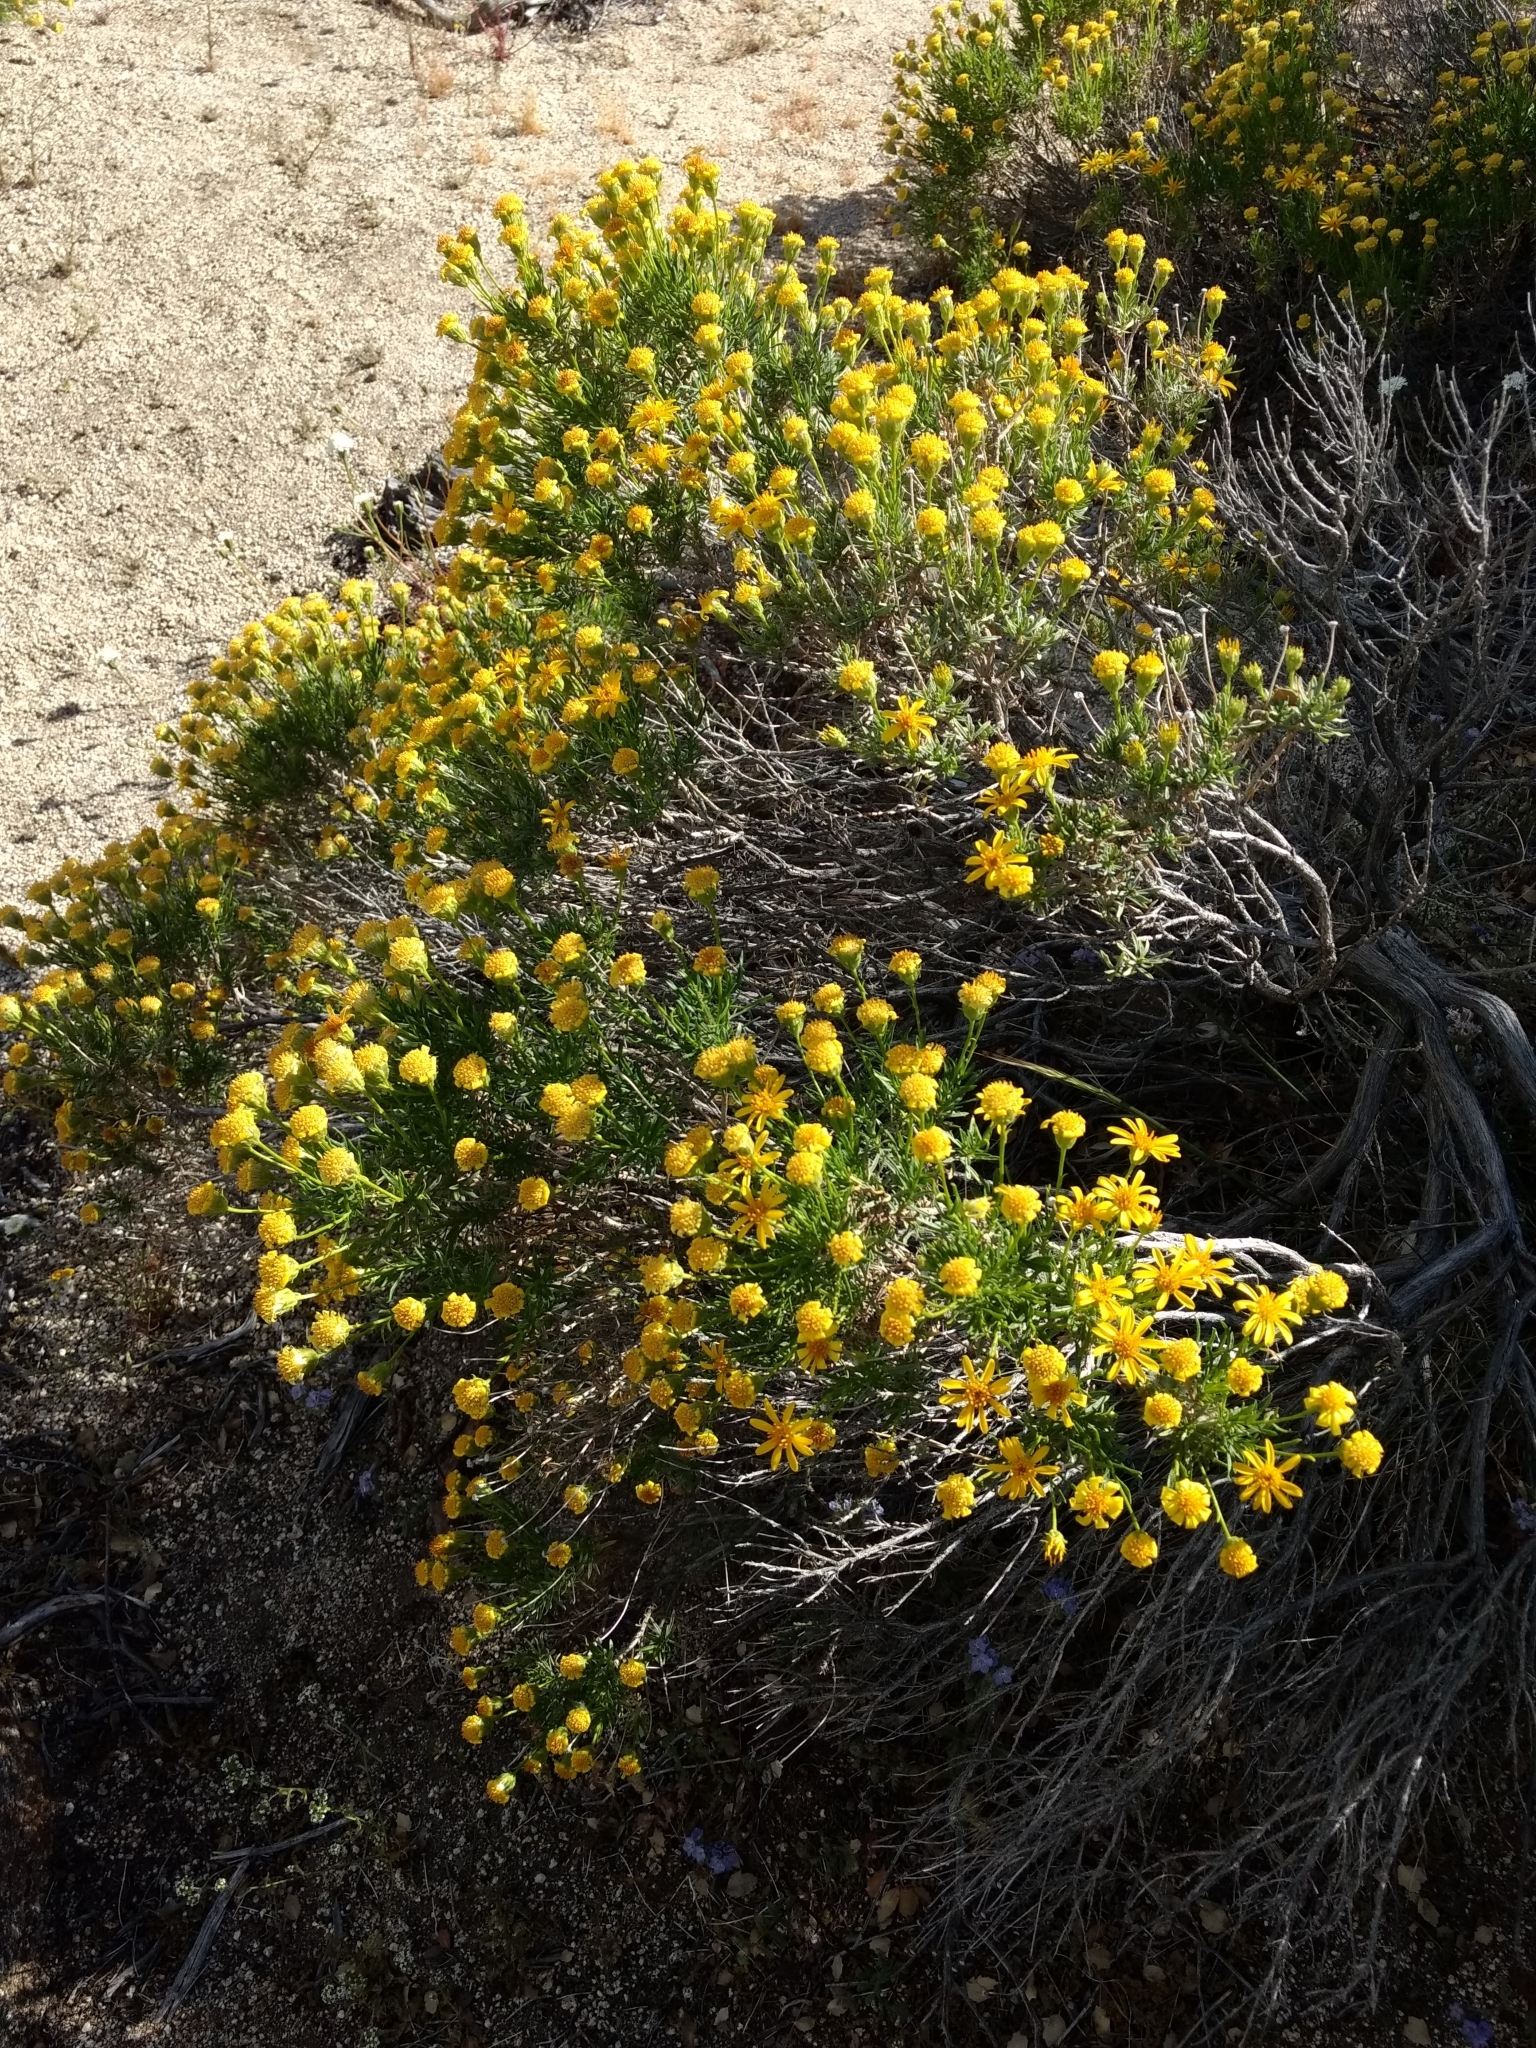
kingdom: Plantae
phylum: Tracheophyta
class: Magnoliopsida
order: Asterales
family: Asteraceae
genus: Ericameria
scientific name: Ericameria linearifolia
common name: Interior goldenbush
